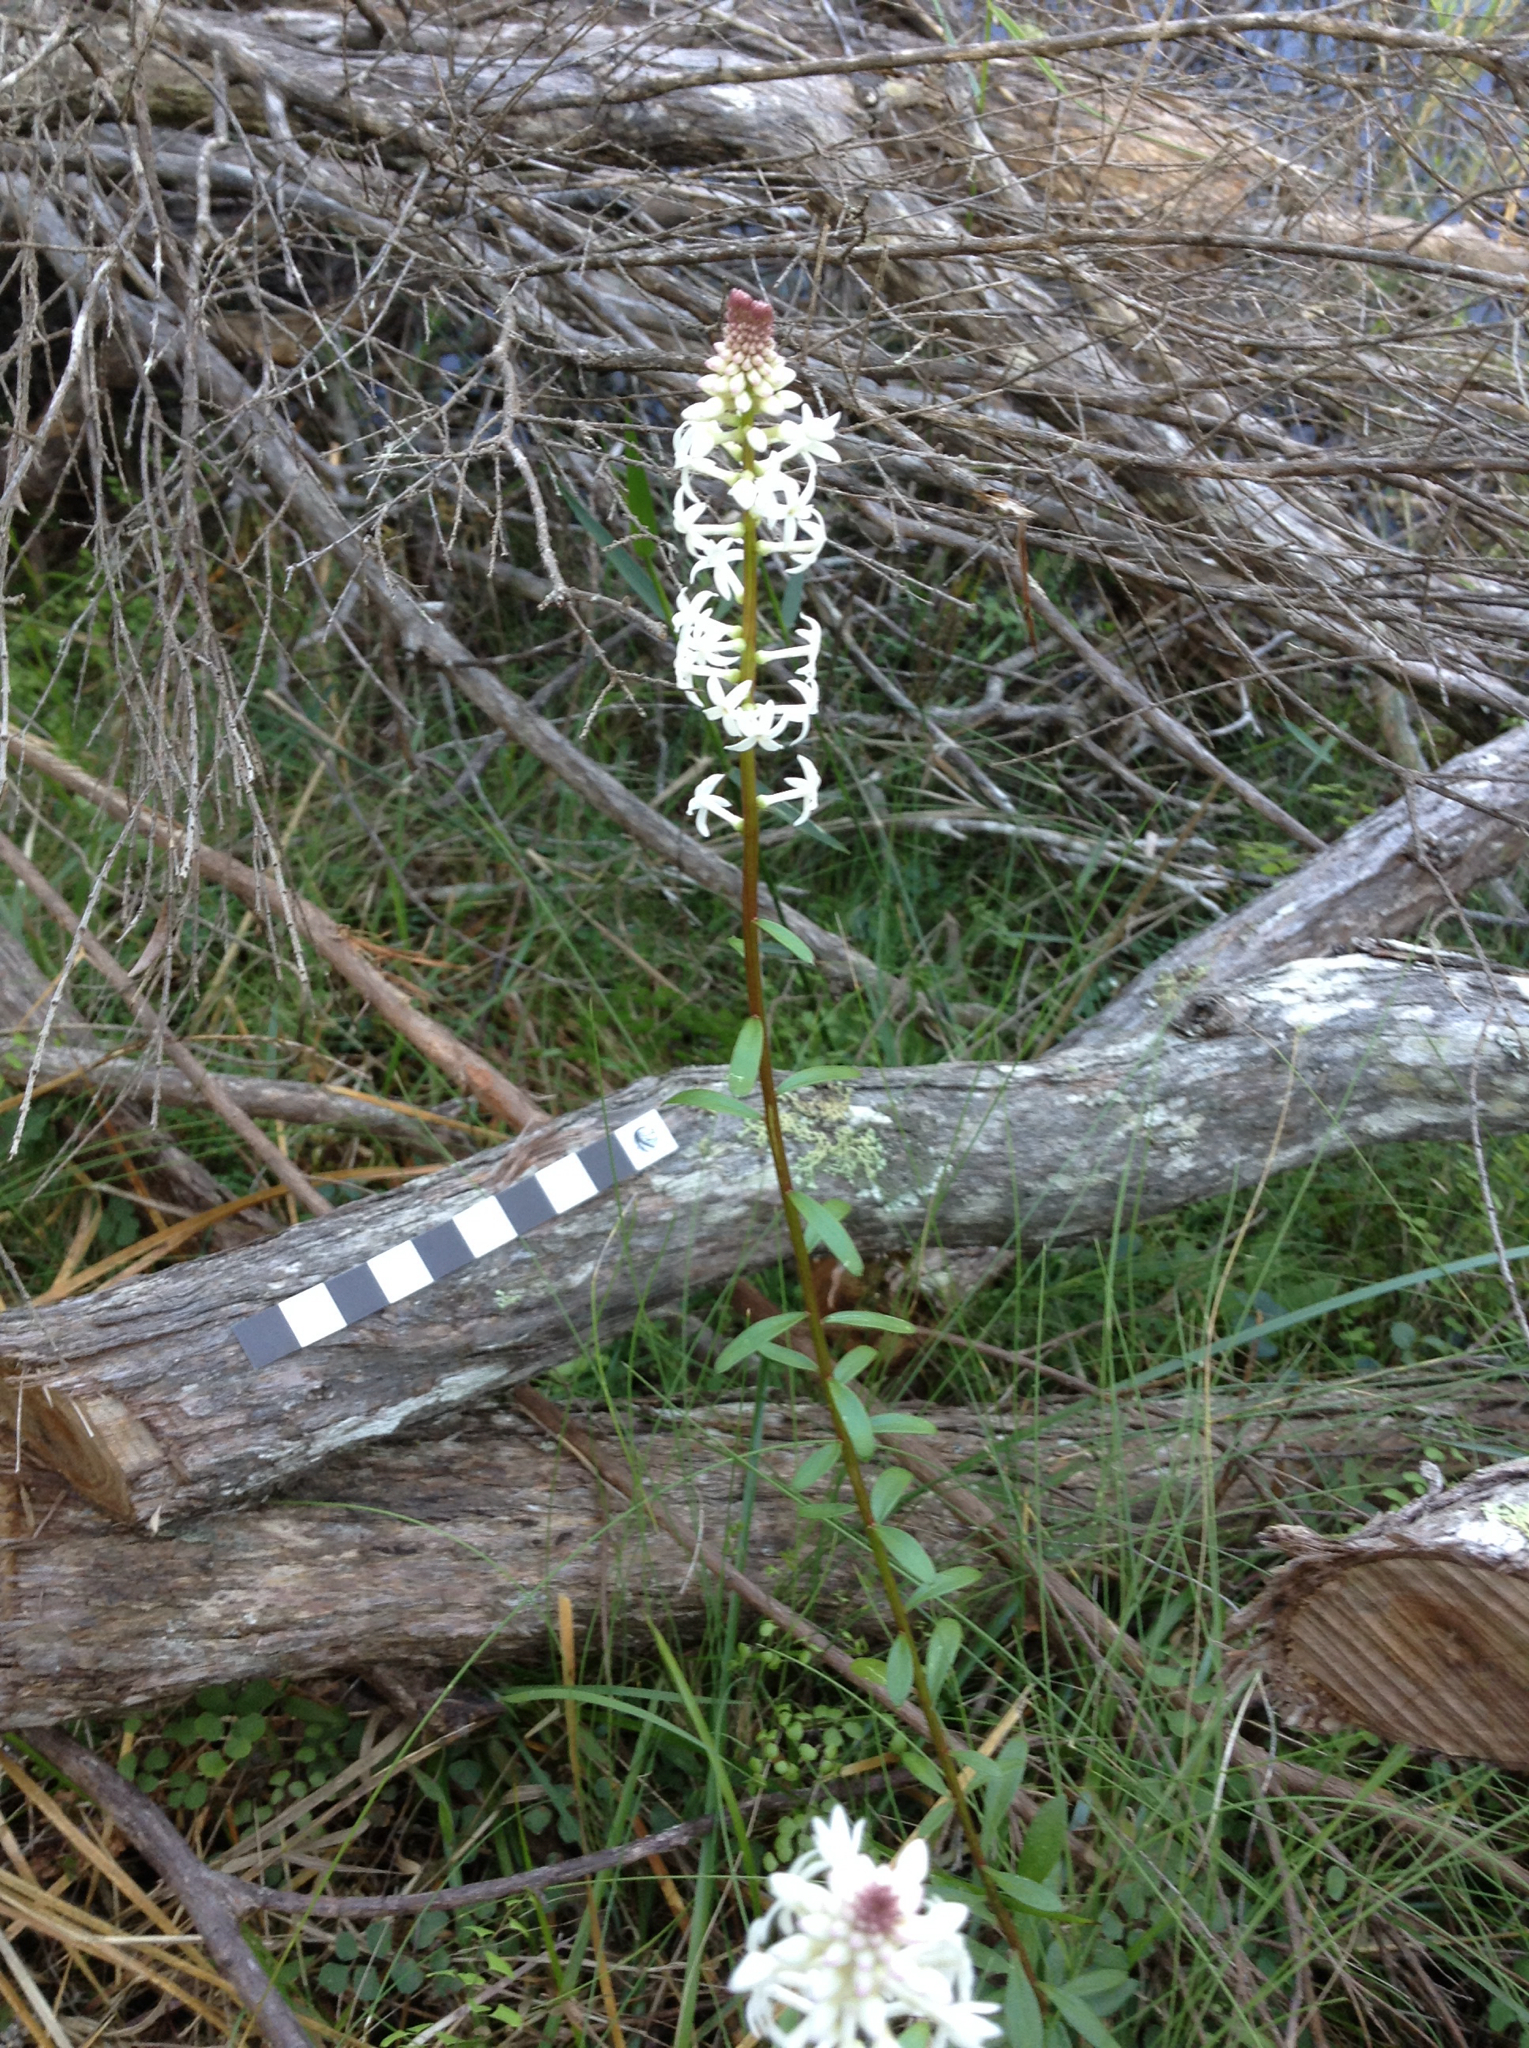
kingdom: Plantae
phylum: Tracheophyta
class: Magnoliopsida
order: Celastrales
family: Celastraceae
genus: Stackhousia
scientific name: Stackhousia monogyna
